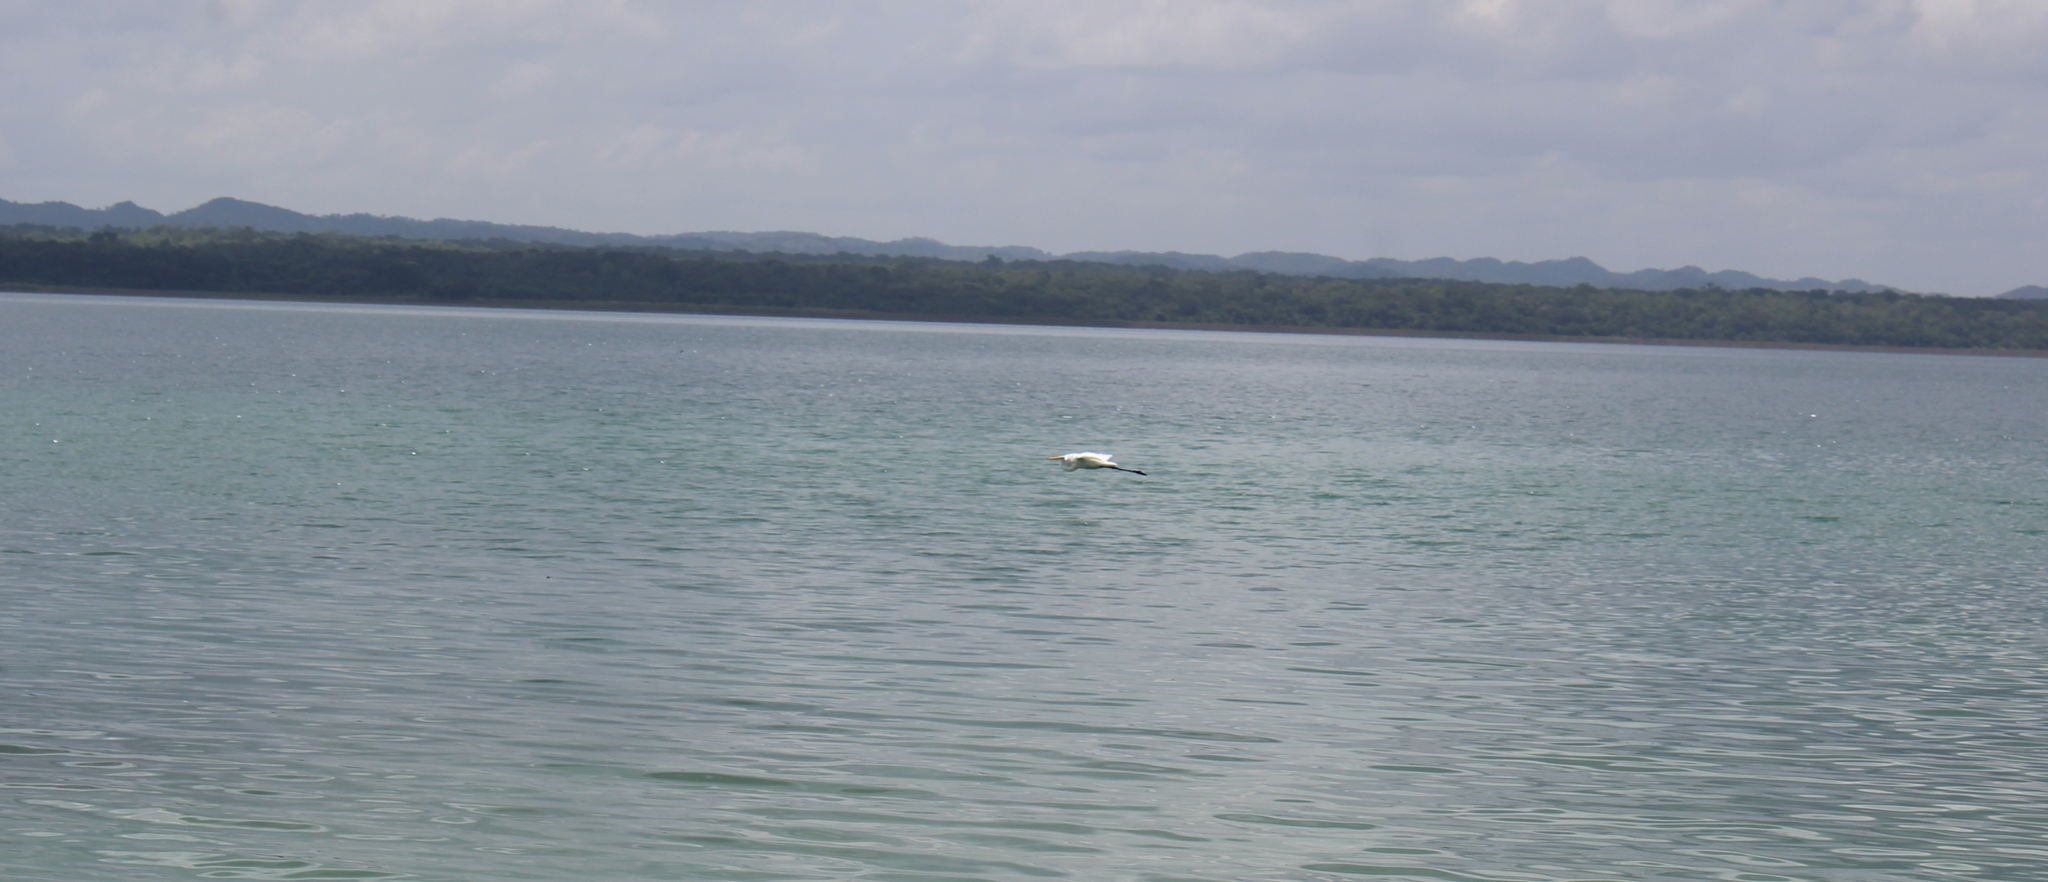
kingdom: Animalia
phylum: Chordata
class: Aves
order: Pelecaniformes
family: Ardeidae
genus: Ardea
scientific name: Ardea alba
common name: Great egret
